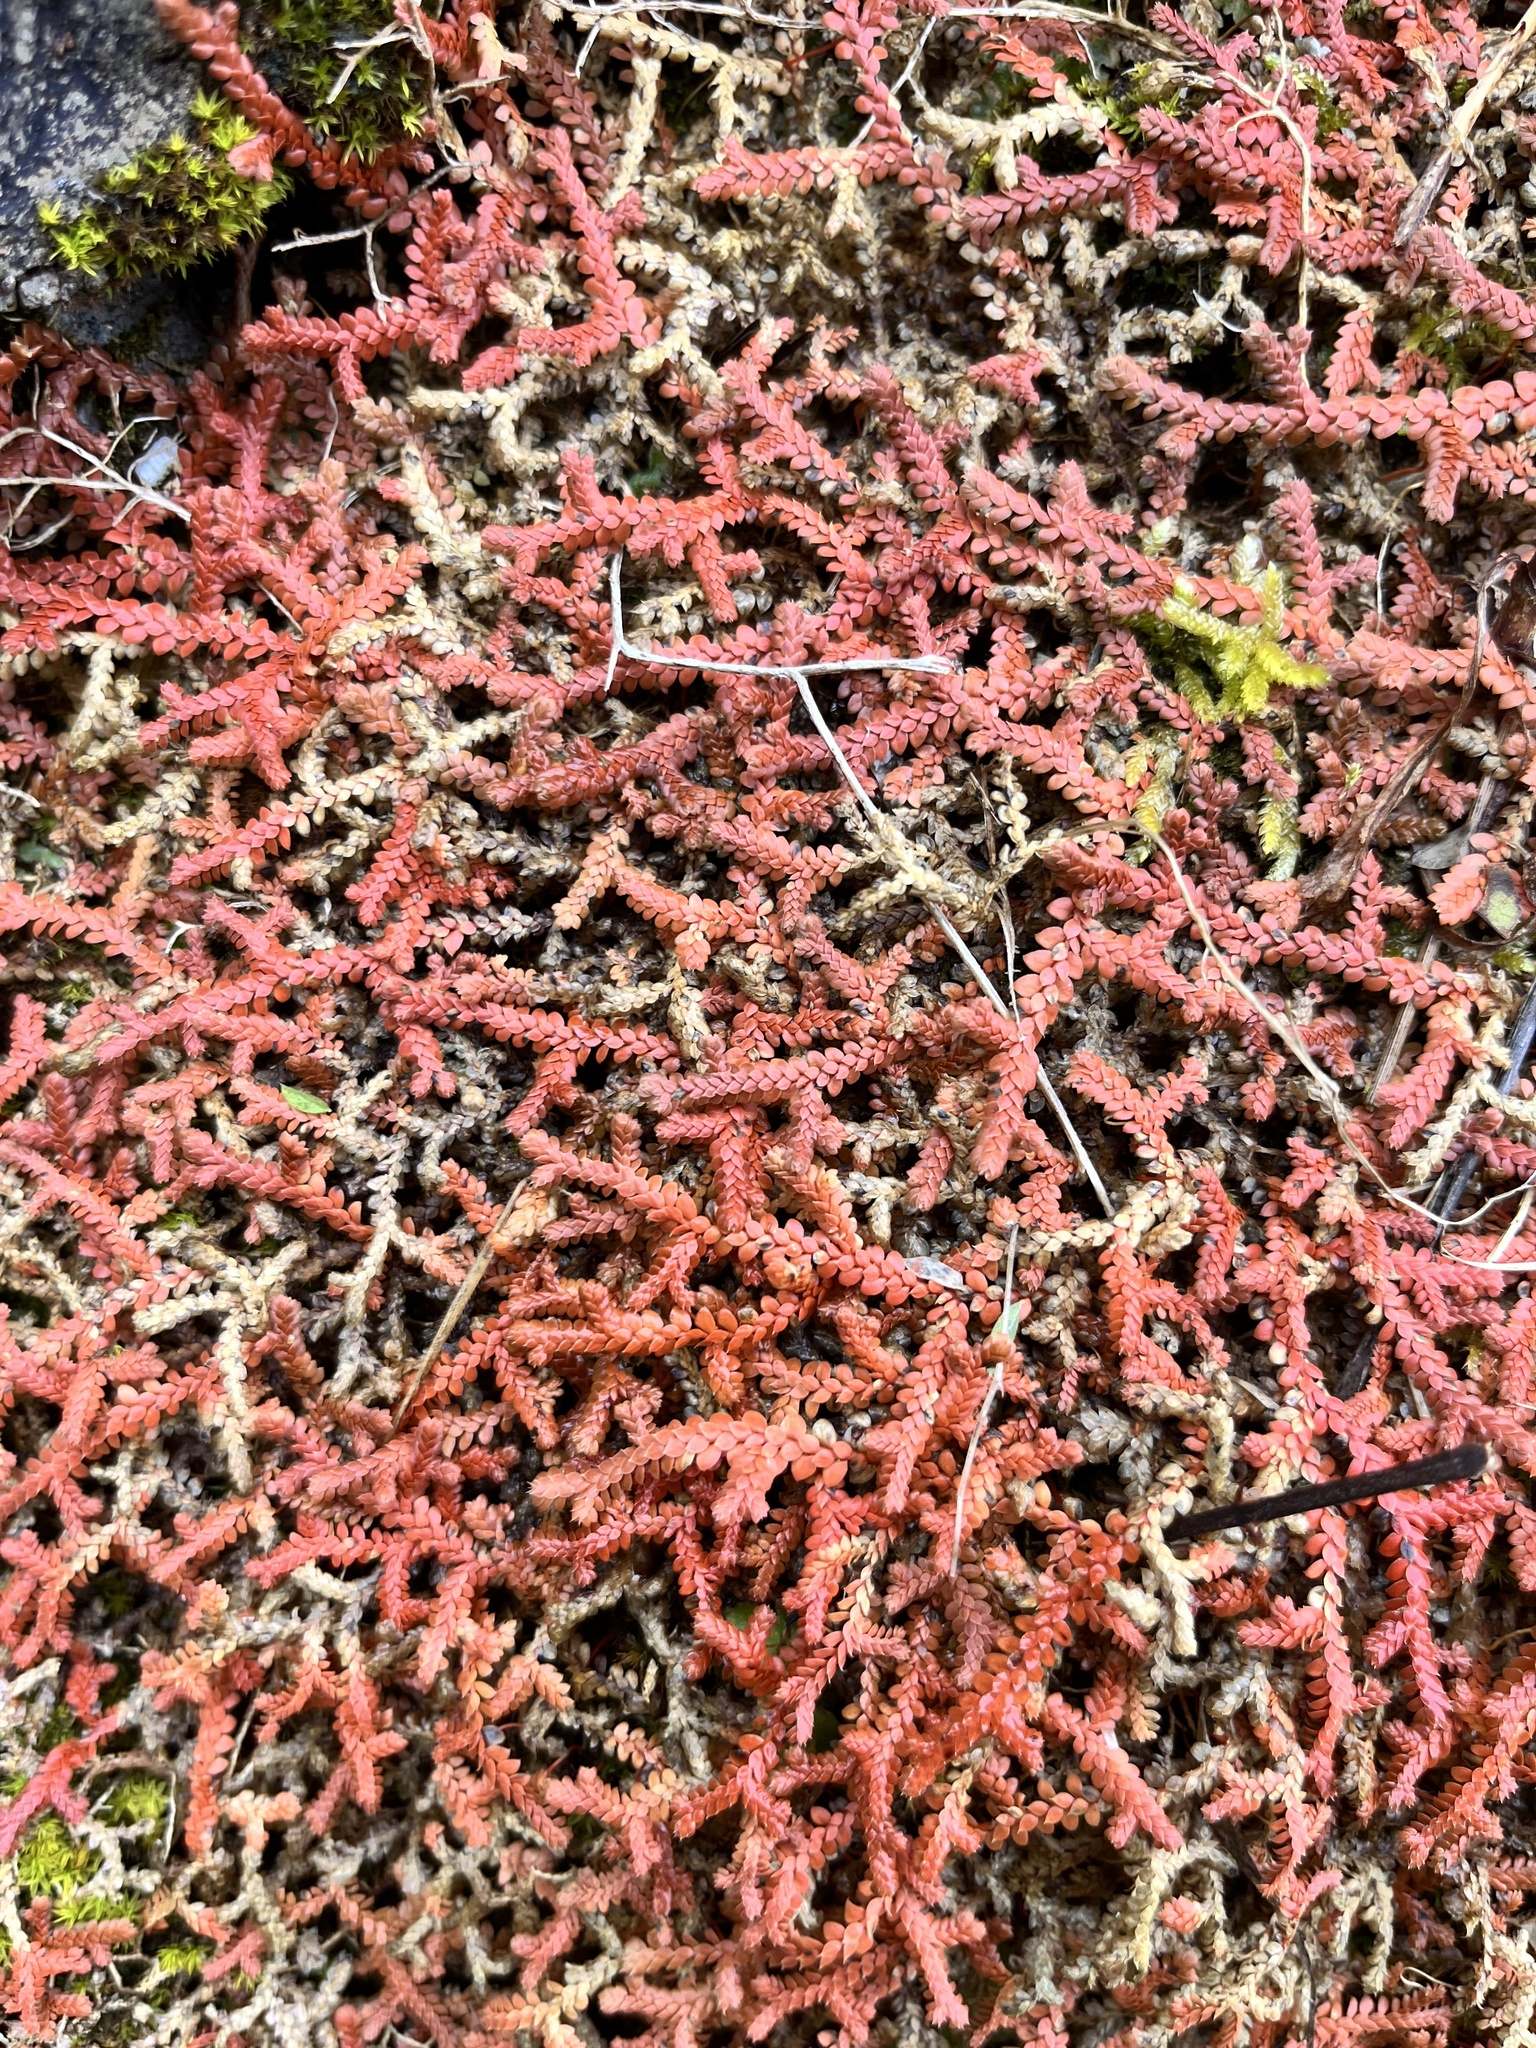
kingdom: Plantae
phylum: Tracheophyta
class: Lycopodiopsida
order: Selaginellales
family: Selaginellaceae
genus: Selaginella
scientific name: Selaginella denticulata
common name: Toothed-leaved clubmoss
